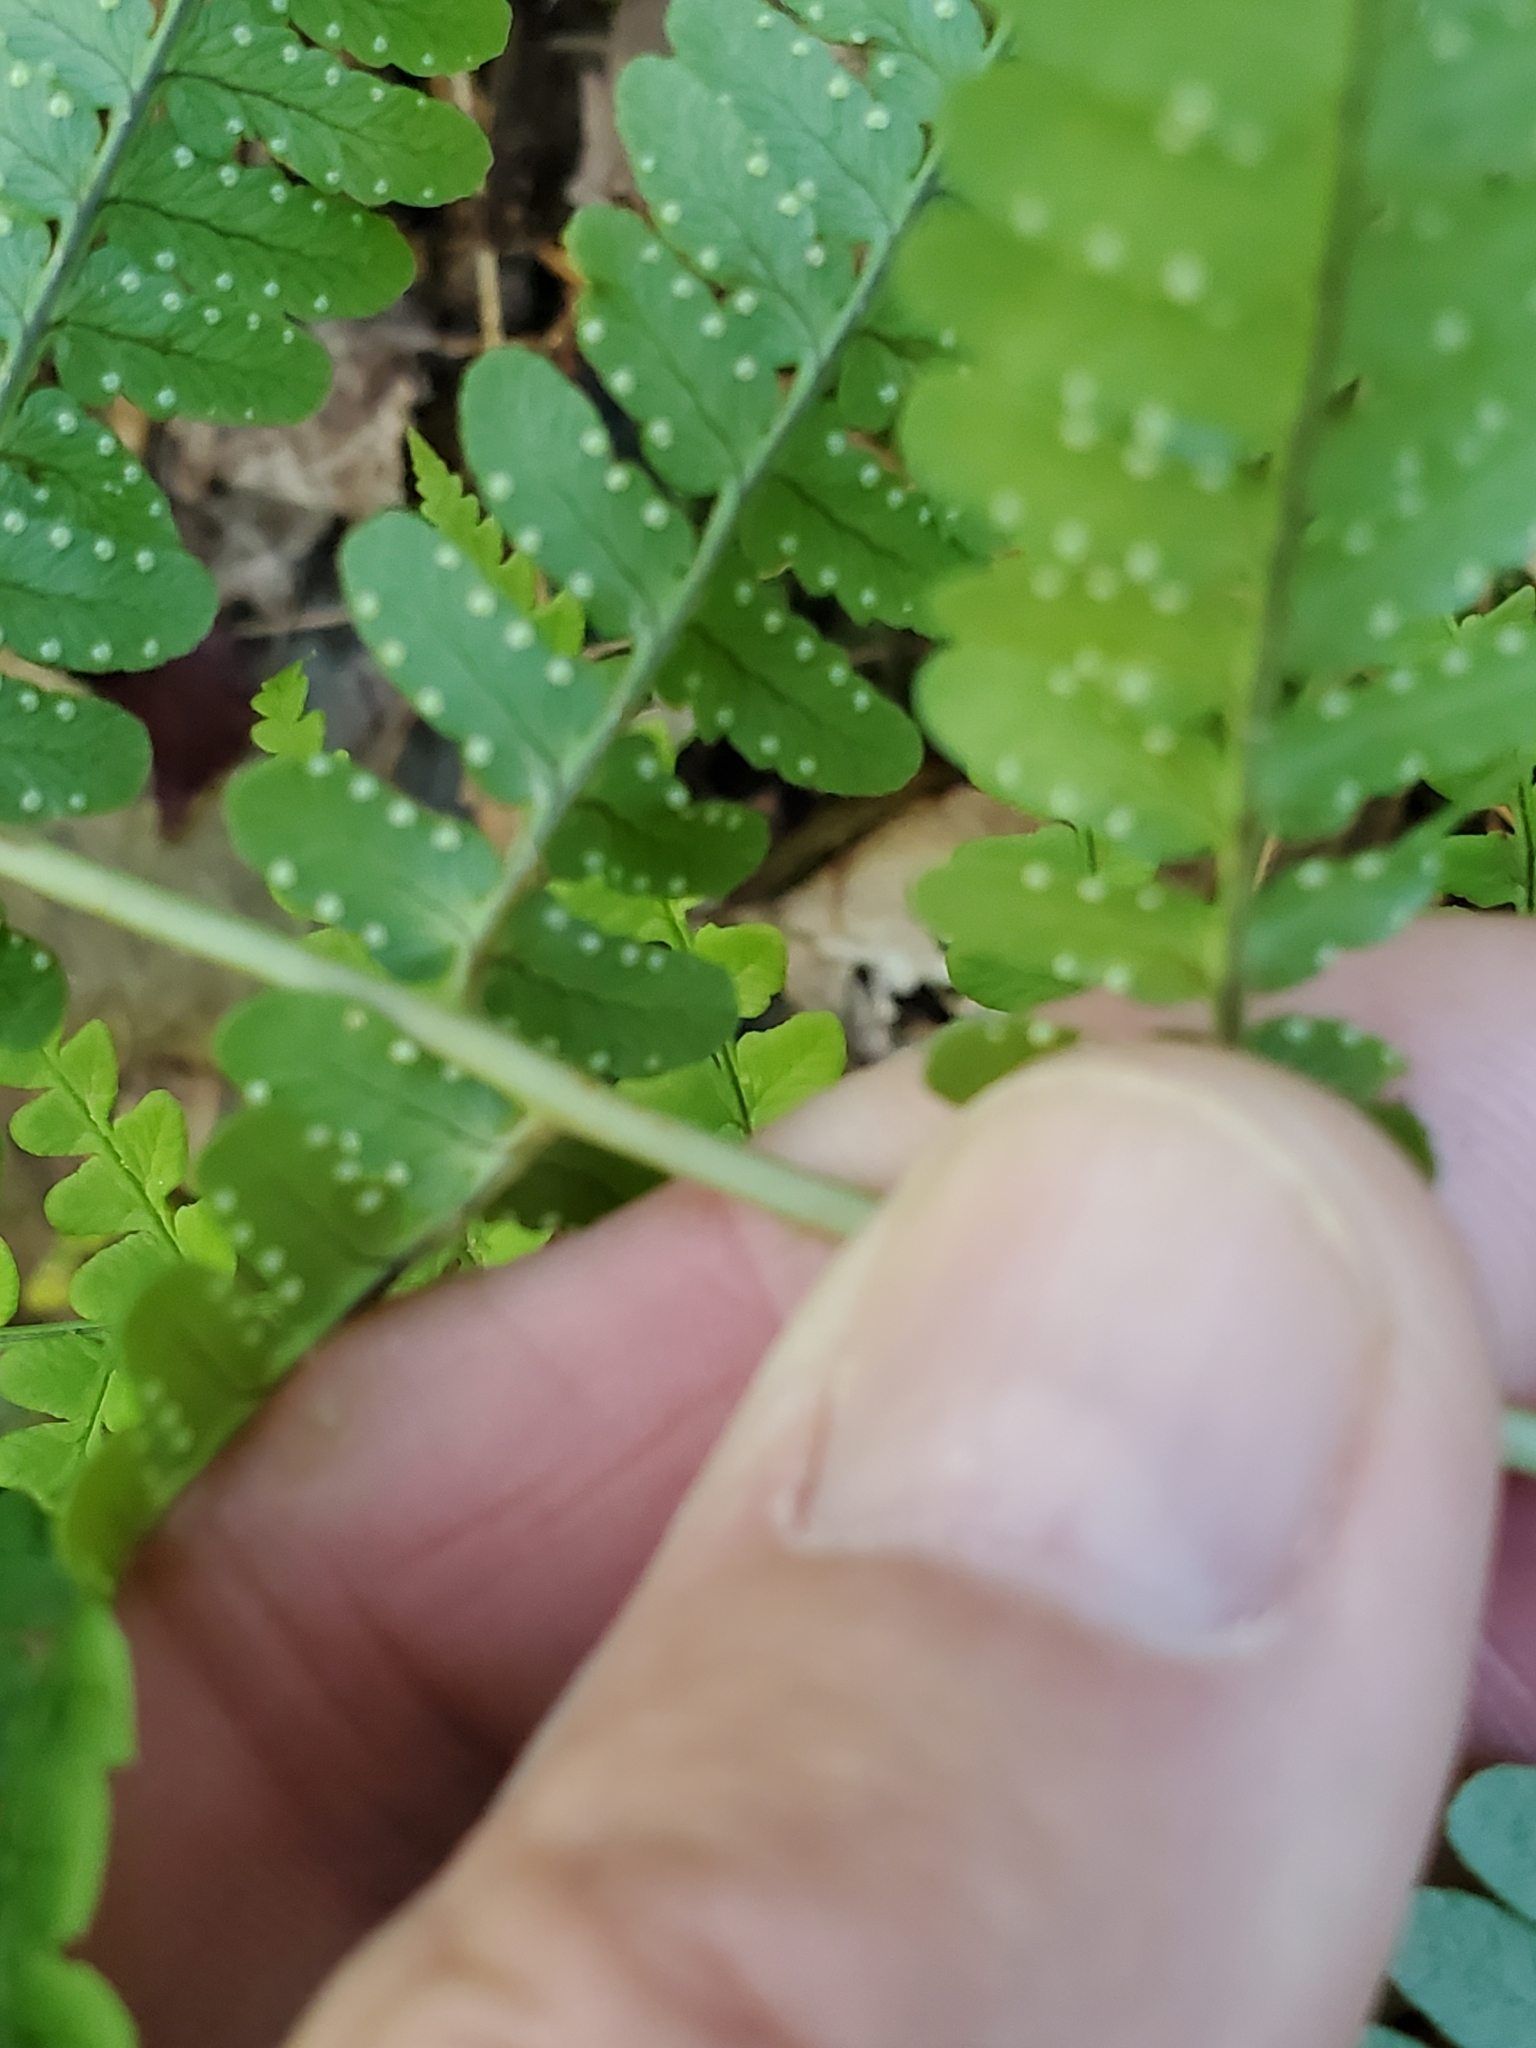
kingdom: Plantae
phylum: Tracheophyta
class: Polypodiopsida
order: Polypodiales
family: Dryopteridaceae
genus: Dryopteris
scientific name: Dryopteris marginalis
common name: Marginal wood fern
